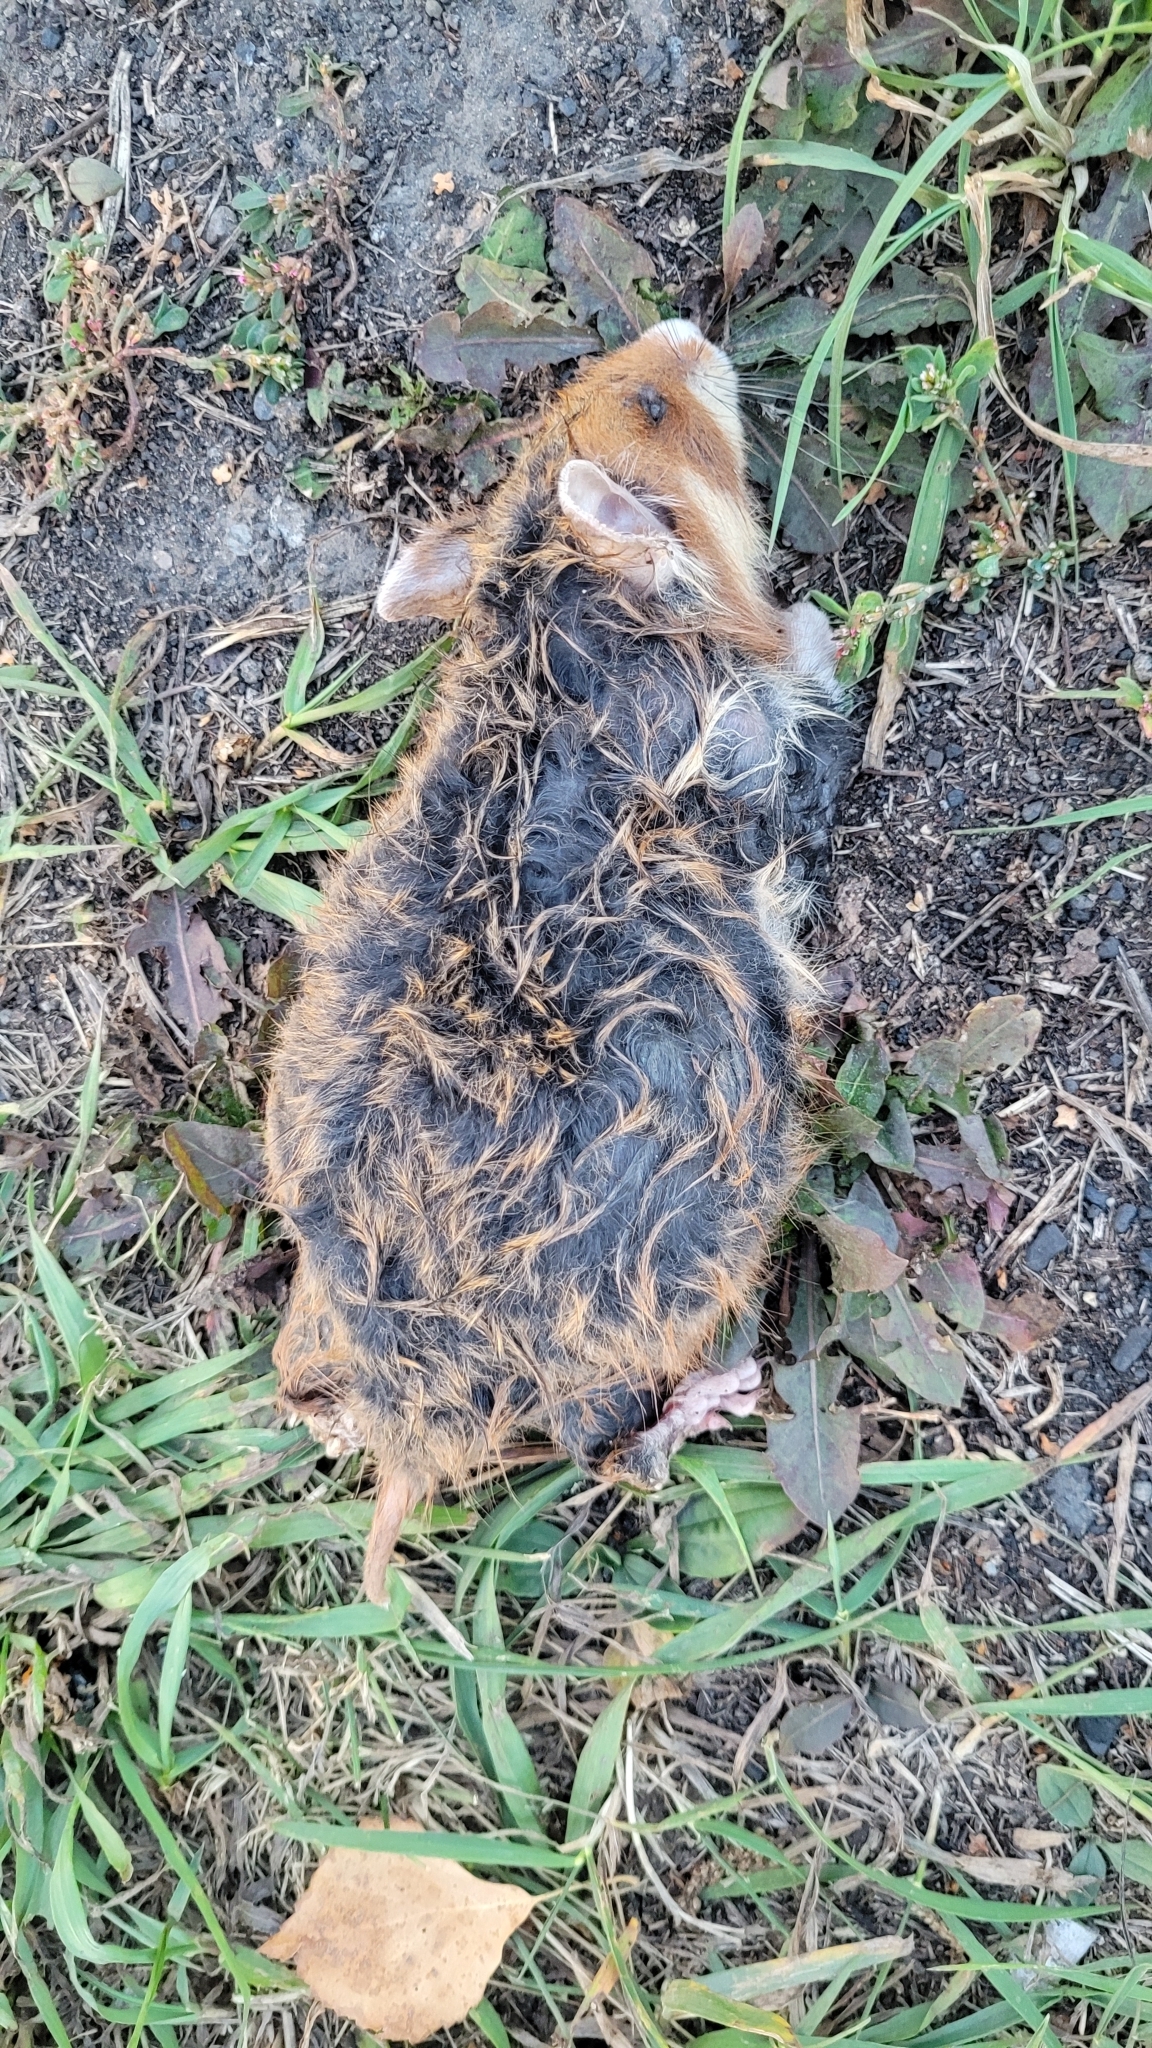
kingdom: Animalia
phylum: Chordata
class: Mammalia
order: Rodentia
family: Cricetidae
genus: Cricetus
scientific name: Cricetus cricetus
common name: Common hamster
